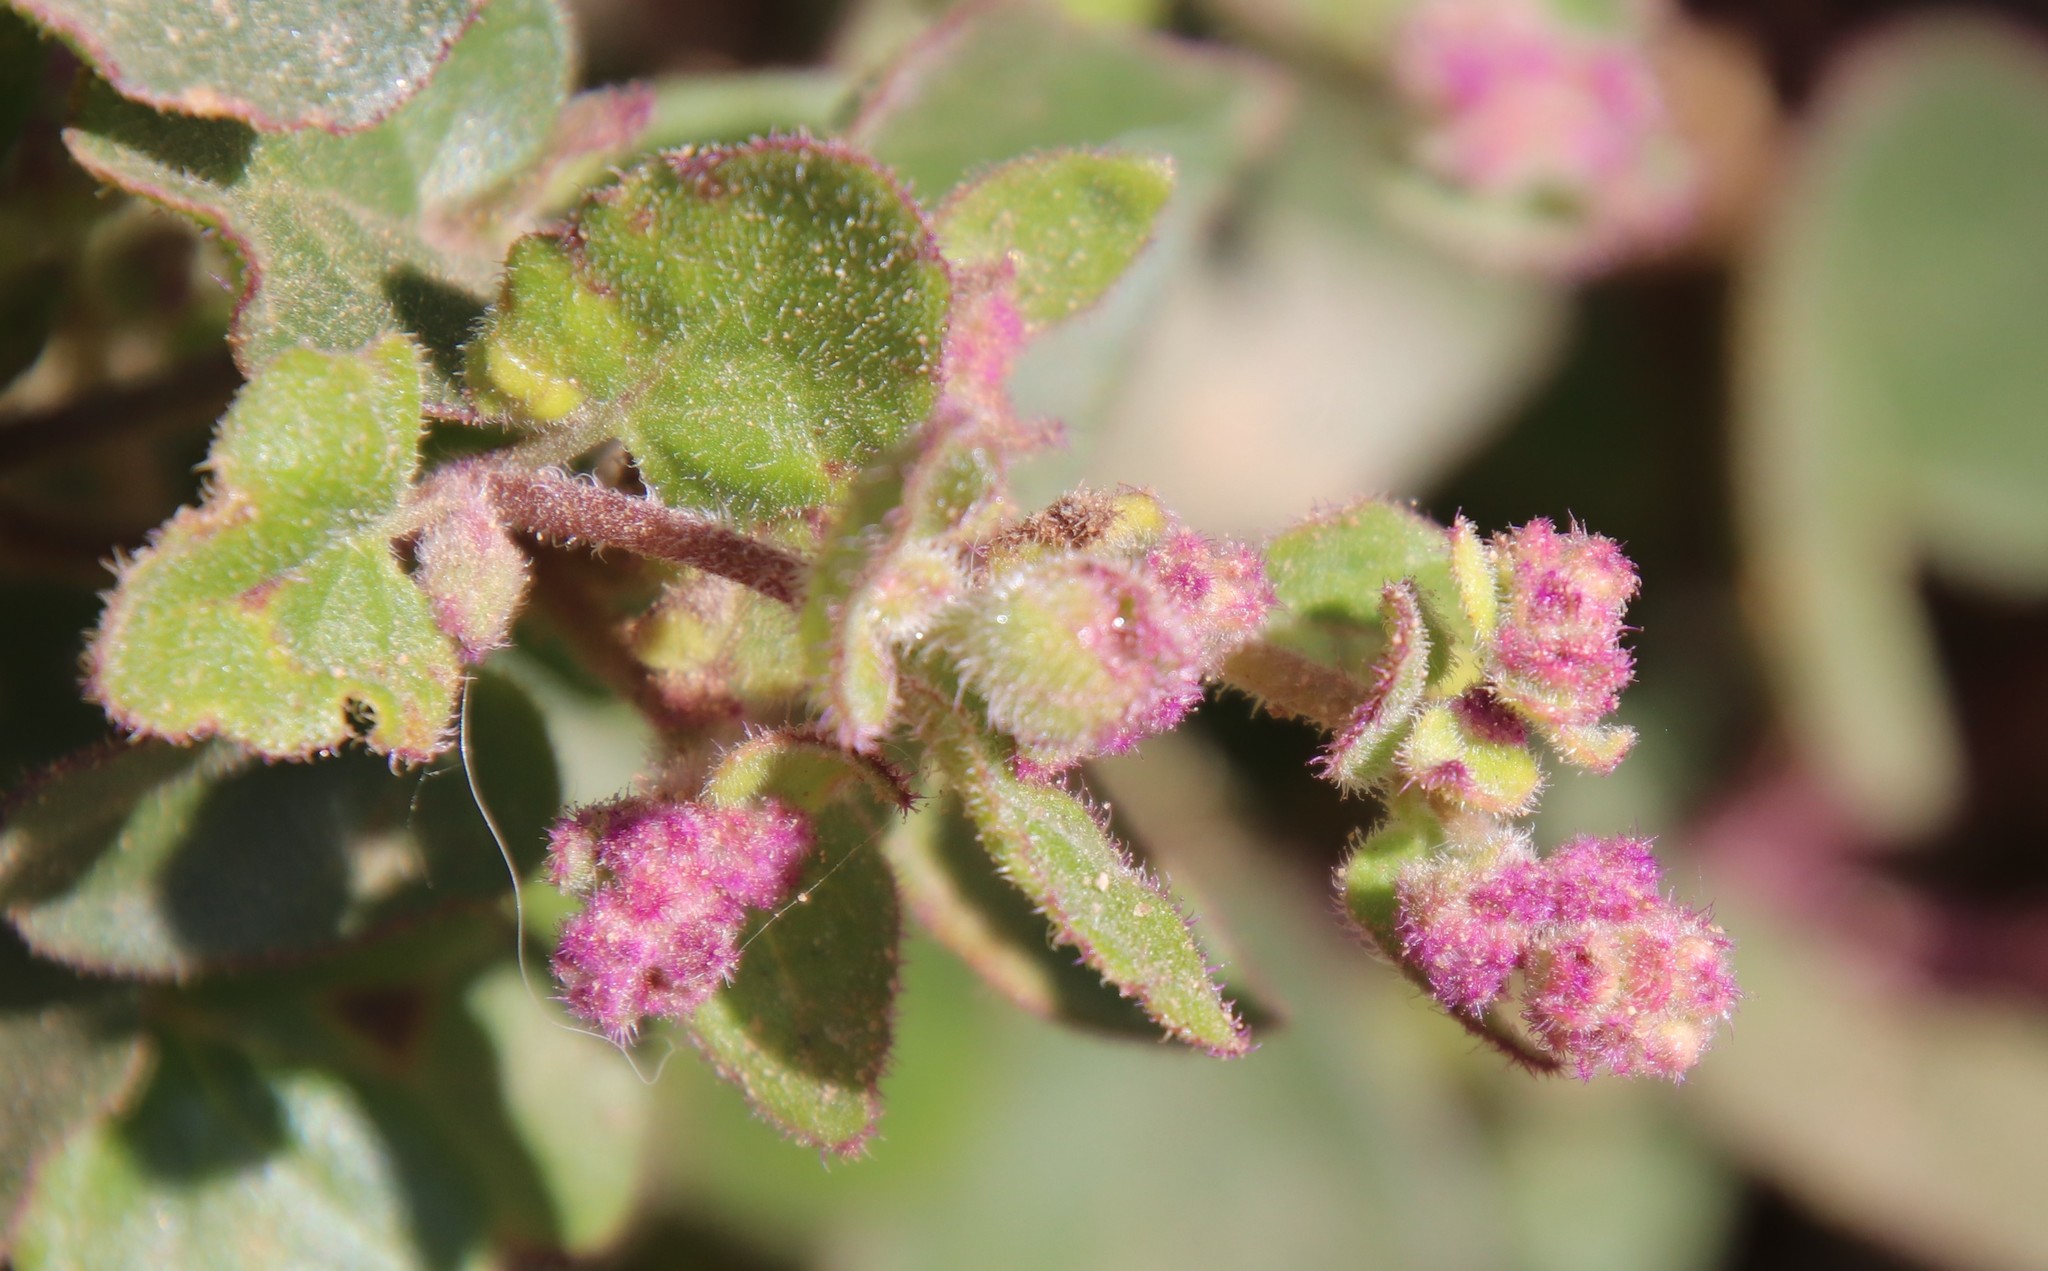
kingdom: Plantae
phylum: Tracheophyta
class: Magnoliopsida
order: Caryophyllales
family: Nyctaginaceae
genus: Mirabilis
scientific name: Mirabilis laevis
